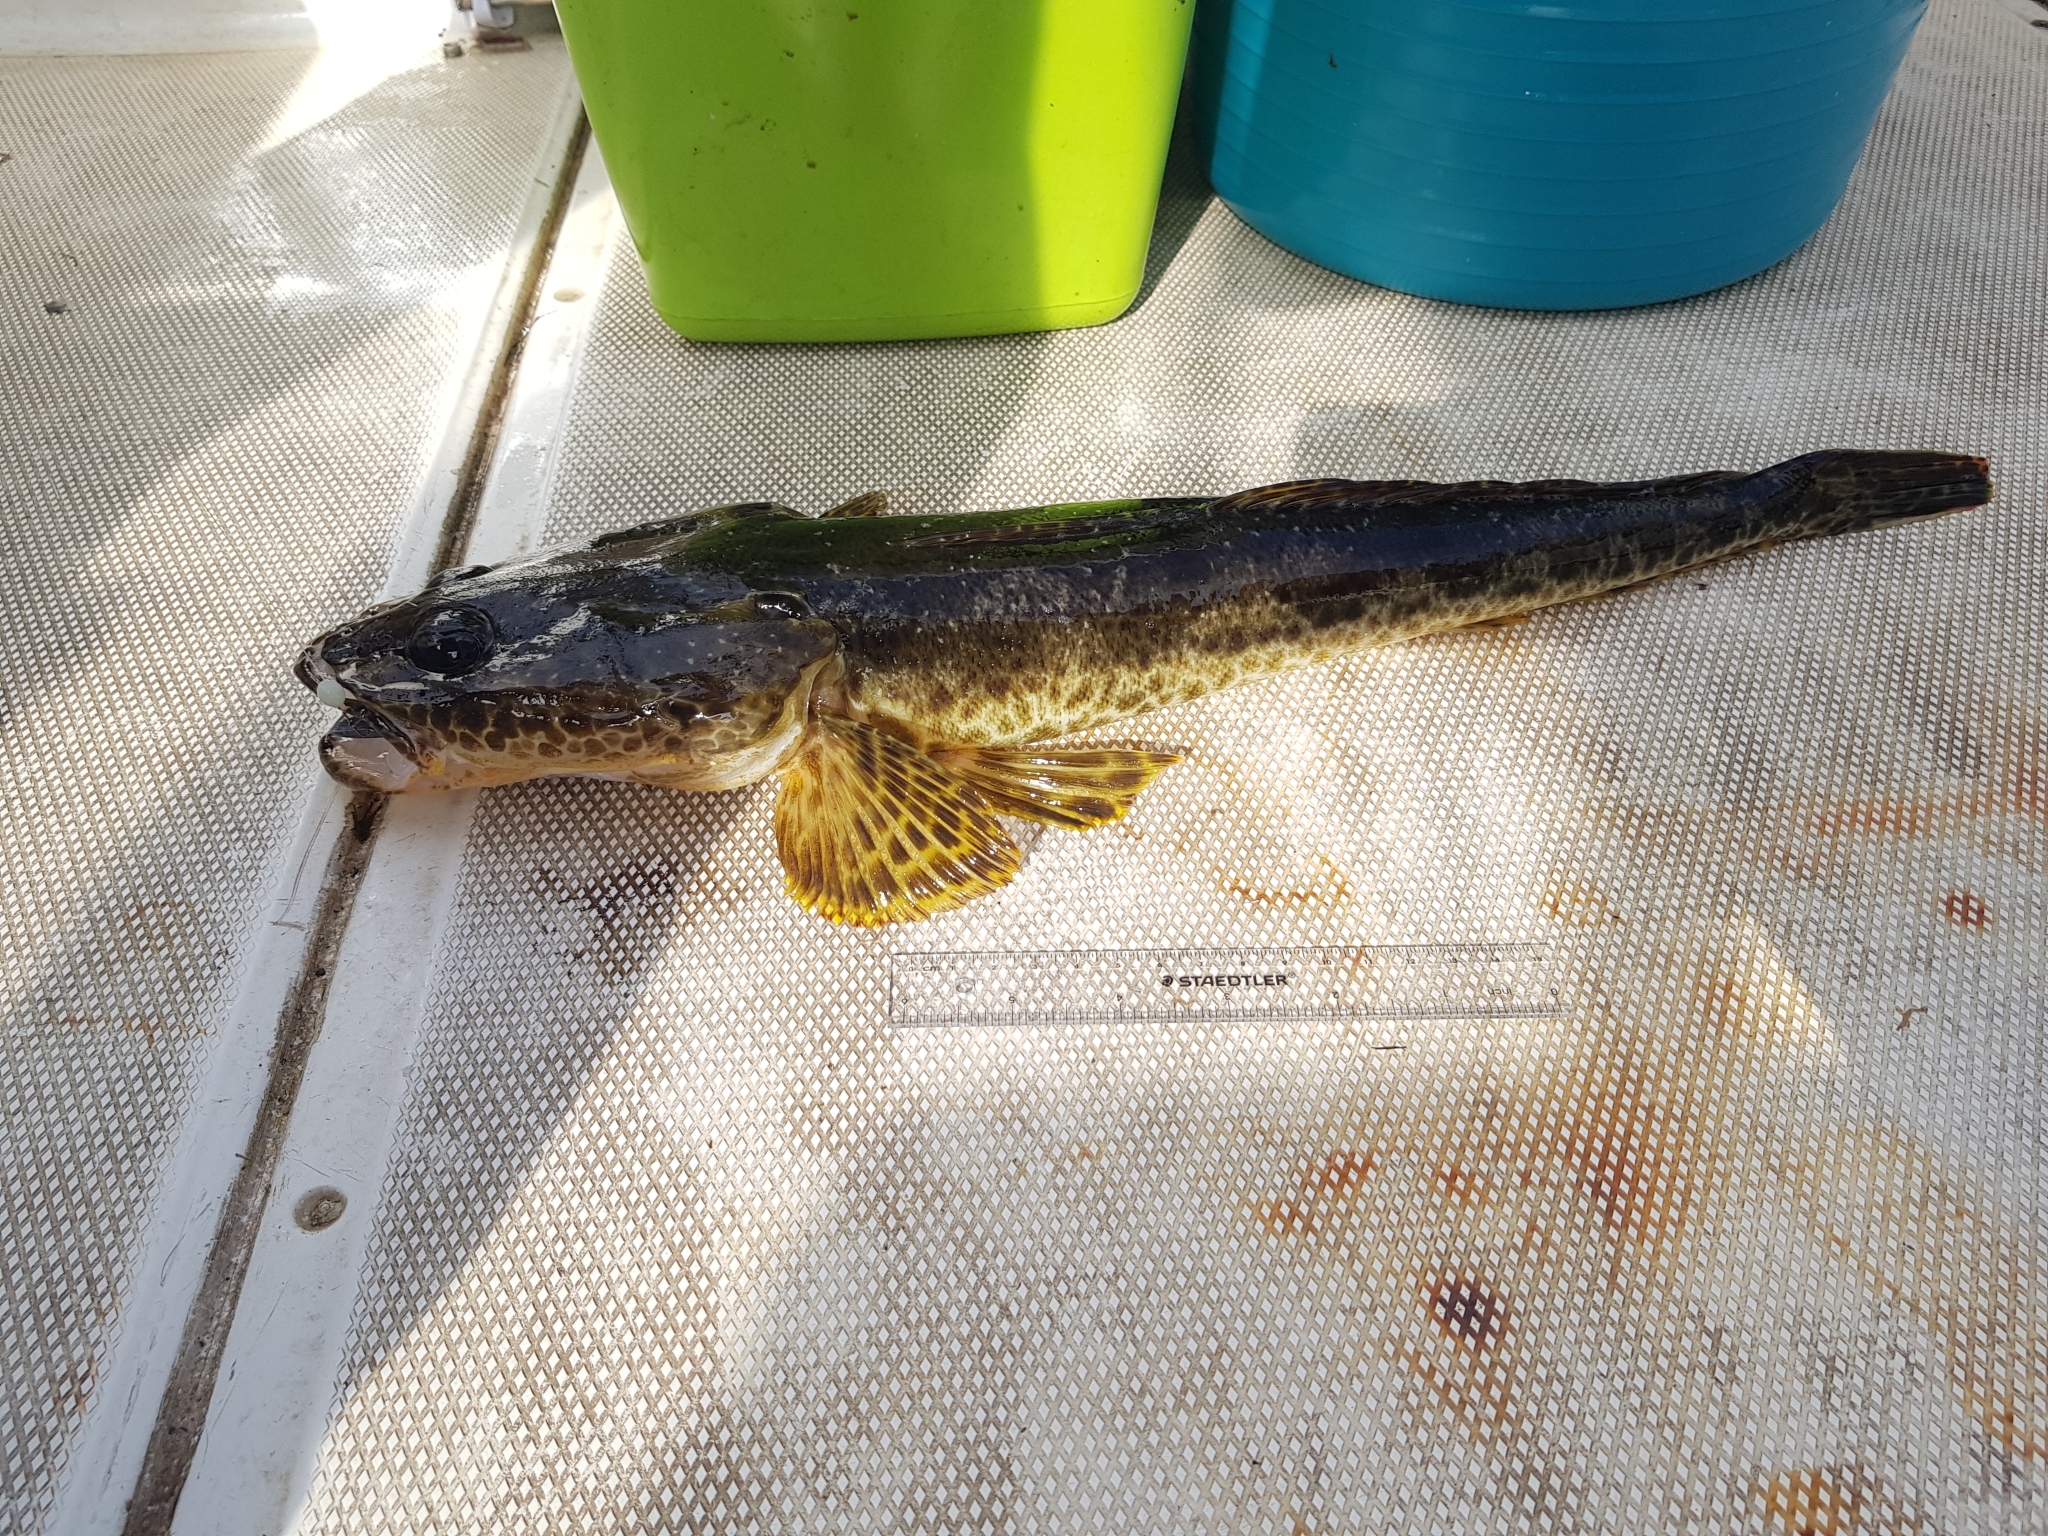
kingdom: Animalia
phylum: Chordata
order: Scorpaeniformes
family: Platycephalidae
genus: Platycephalus
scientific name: Platycephalus laevigatus
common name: Rock flathead
